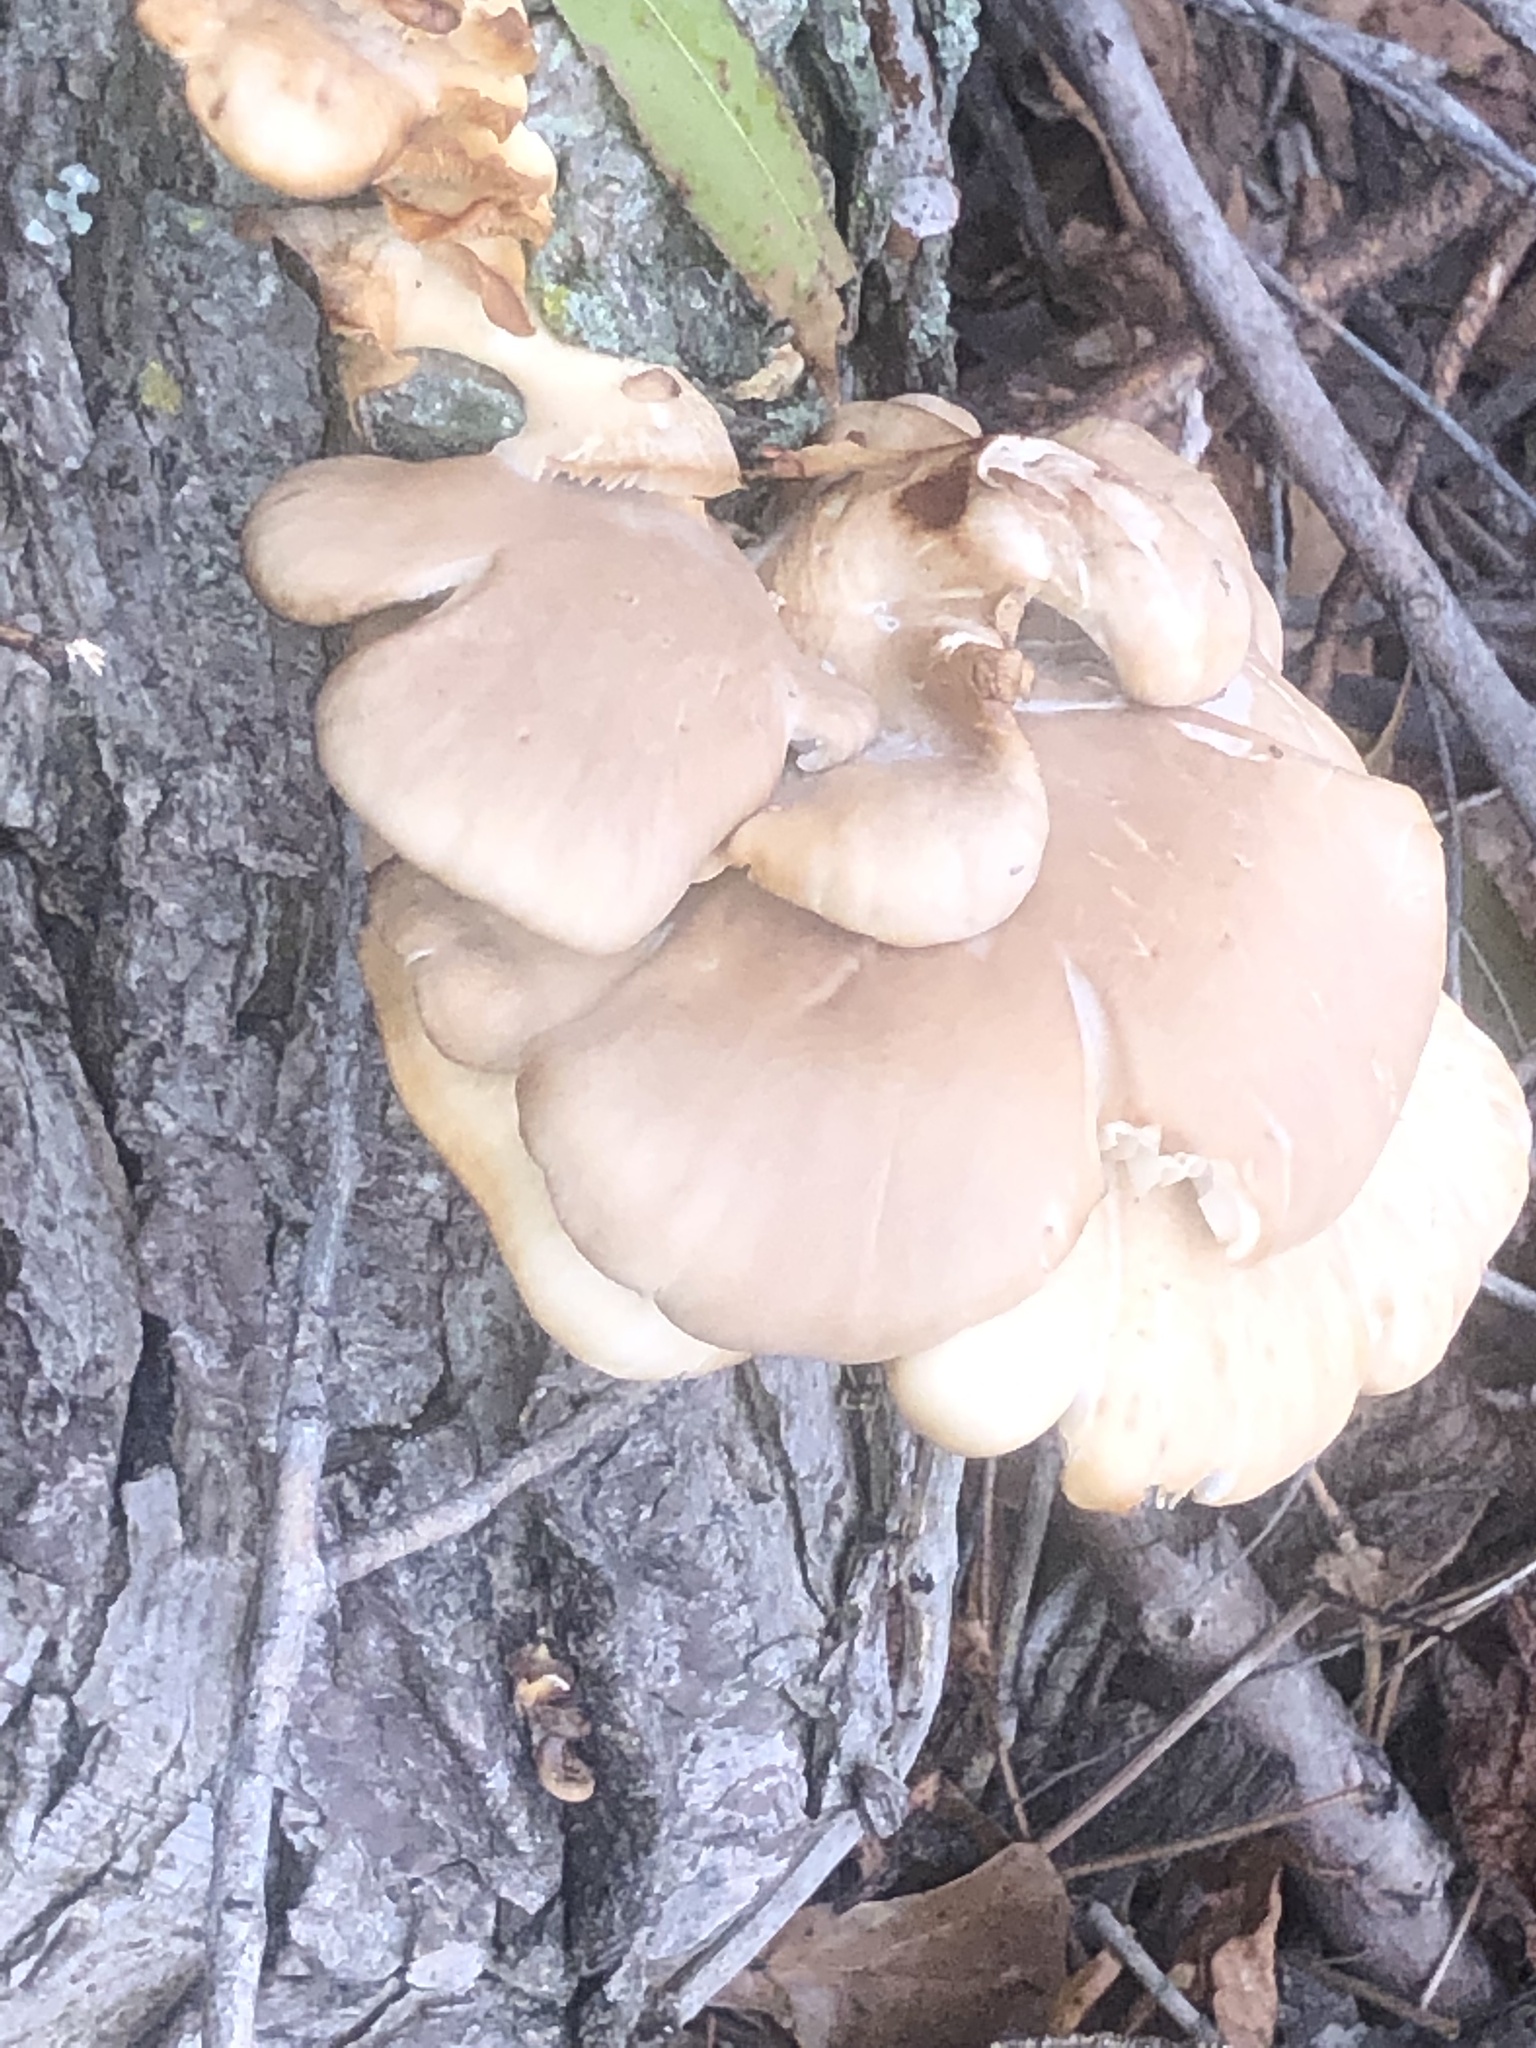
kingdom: Fungi
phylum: Basidiomycota
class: Agaricomycetes
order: Agaricales
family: Pleurotaceae
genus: Pleurotus
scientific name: Pleurotus ostreatus
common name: Oyster mushroom
